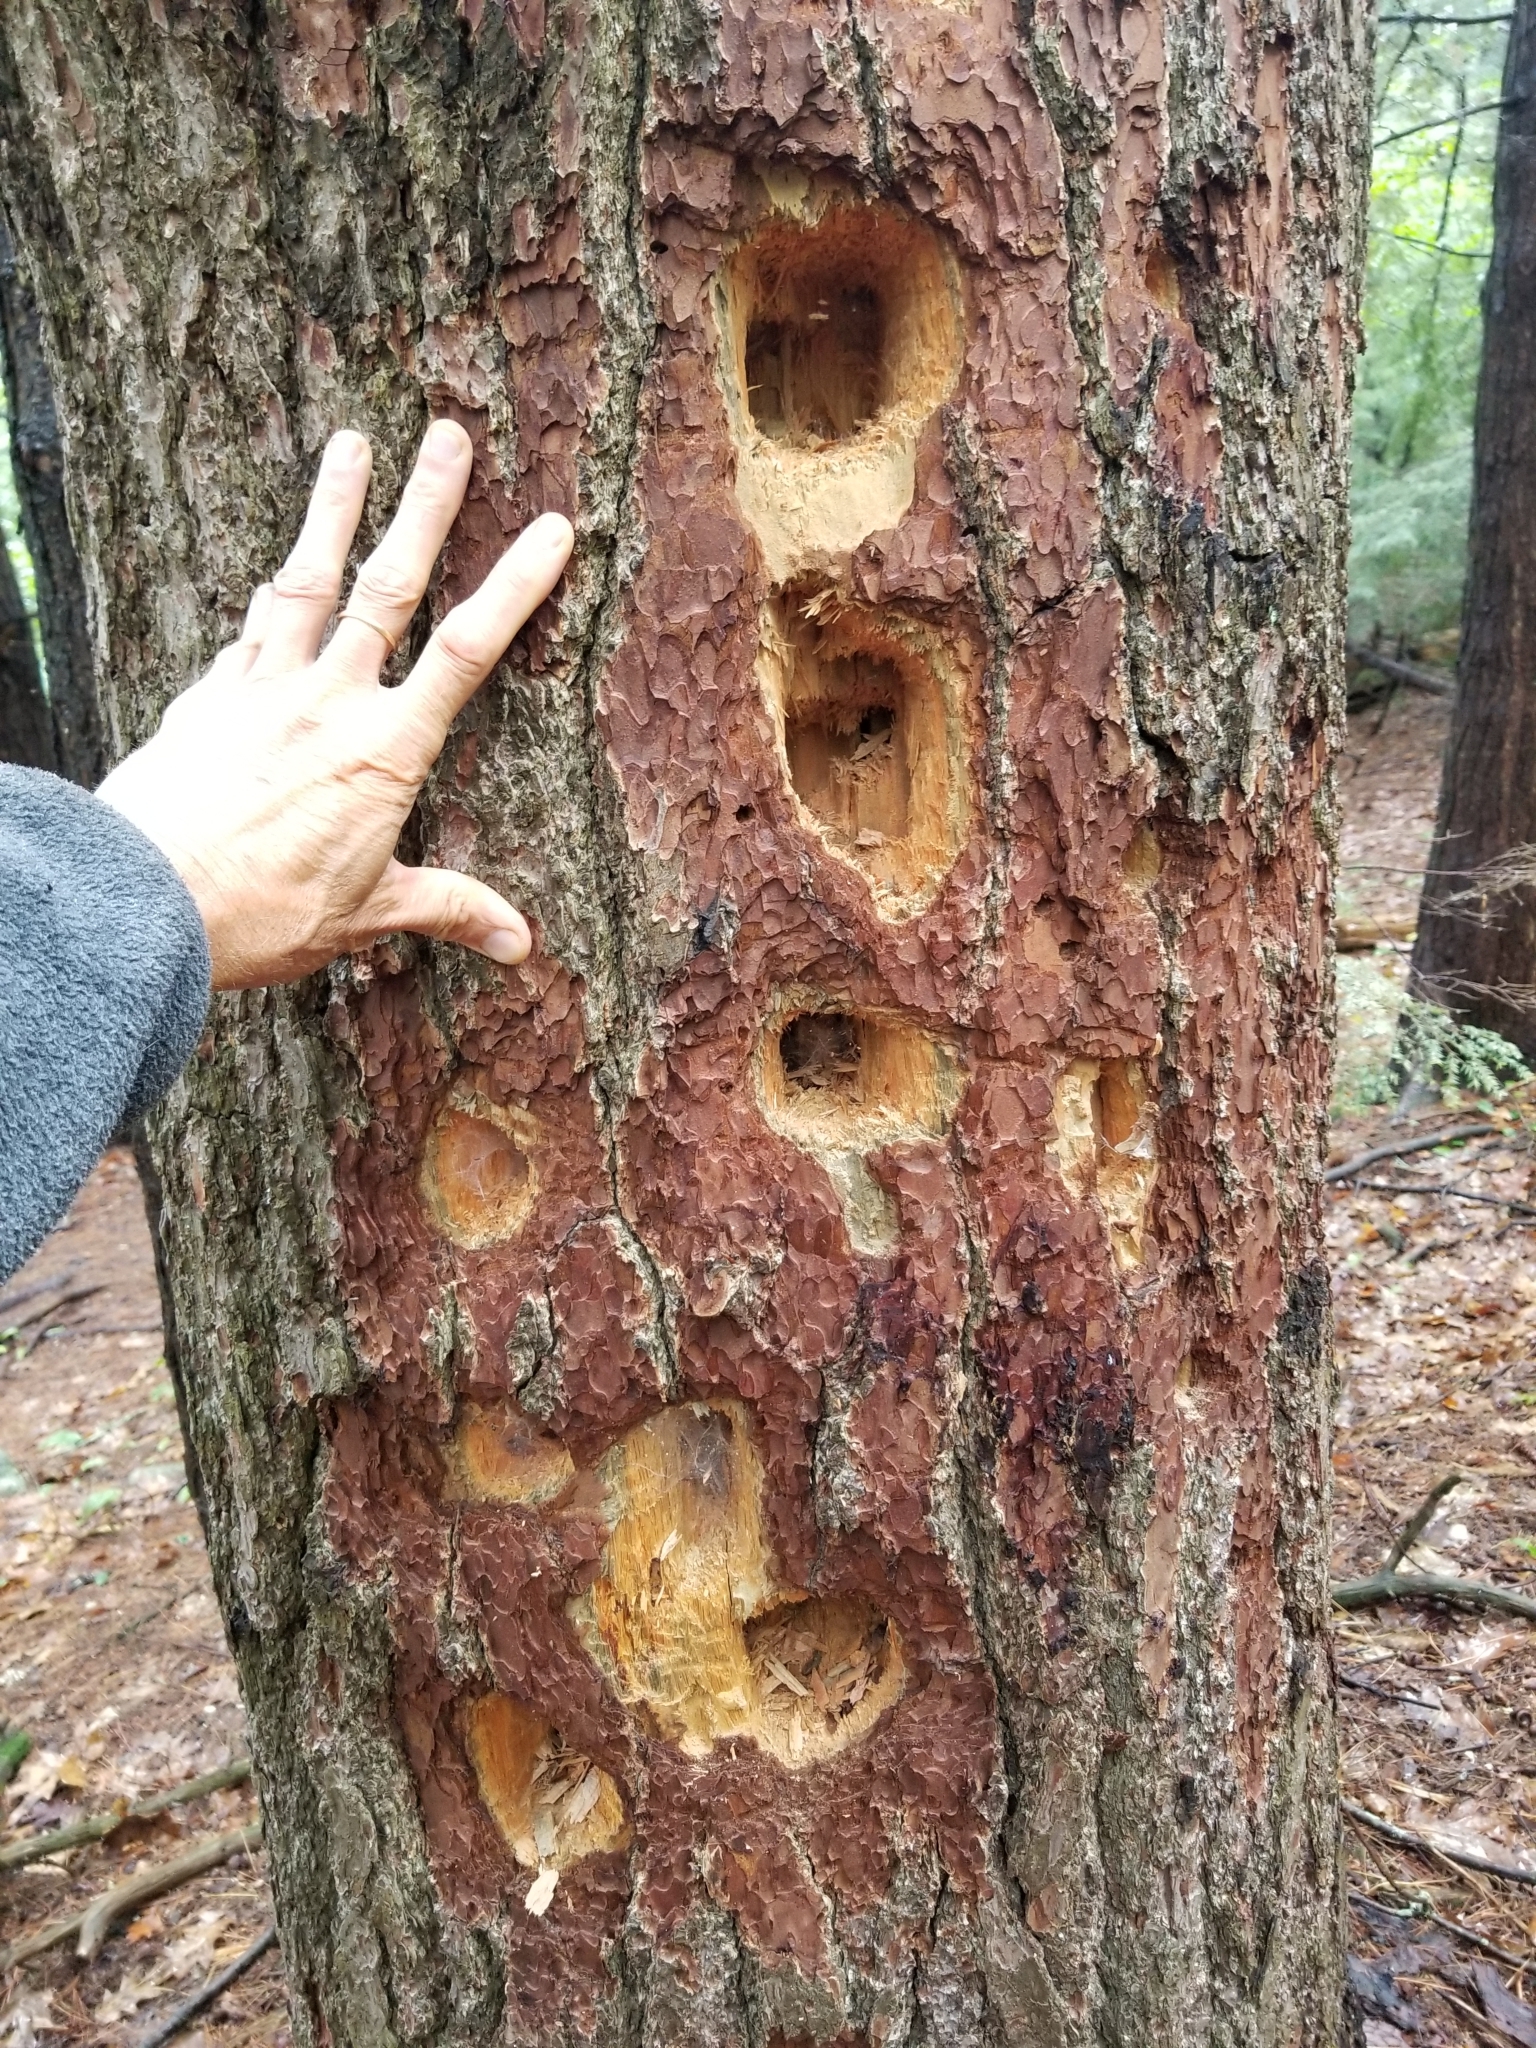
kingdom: Animalia
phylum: Chordata
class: Aves
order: Piciformes
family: Picidae
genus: Dryocopus
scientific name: Dryocopus pileatus
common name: Pileated woodpecker
